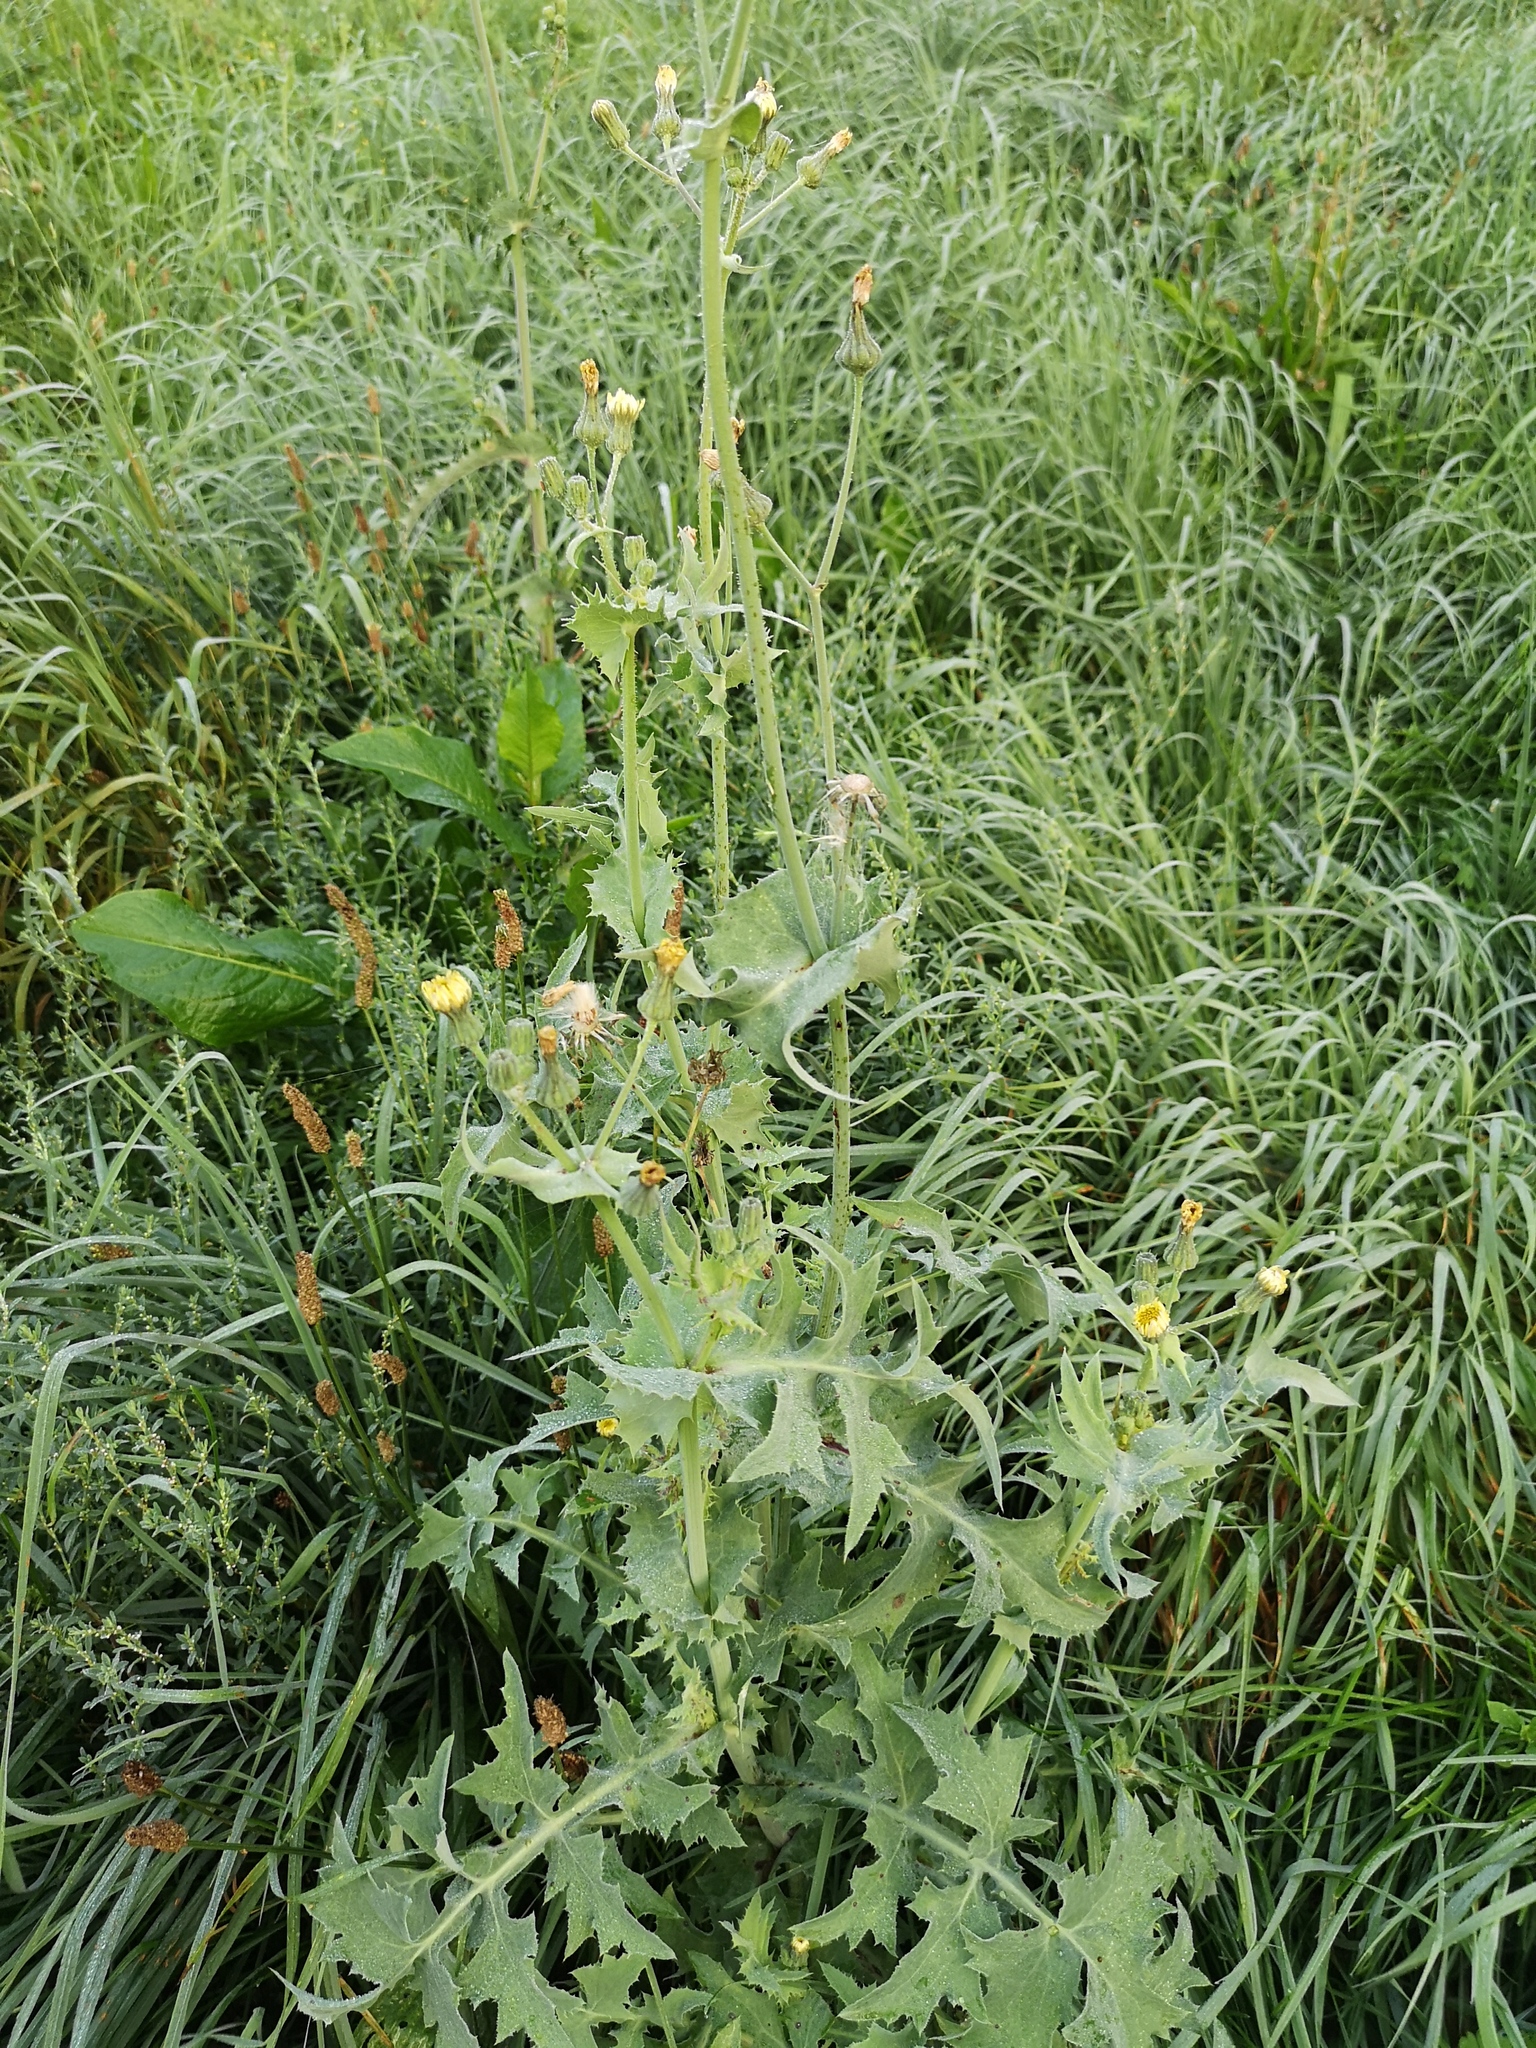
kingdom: Plantae
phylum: Tracheophyta
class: Magnoliopsida
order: Asterales
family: Asteraceae
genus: Sonchus
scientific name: Sonchus oleraceus
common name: Common sowthistle
